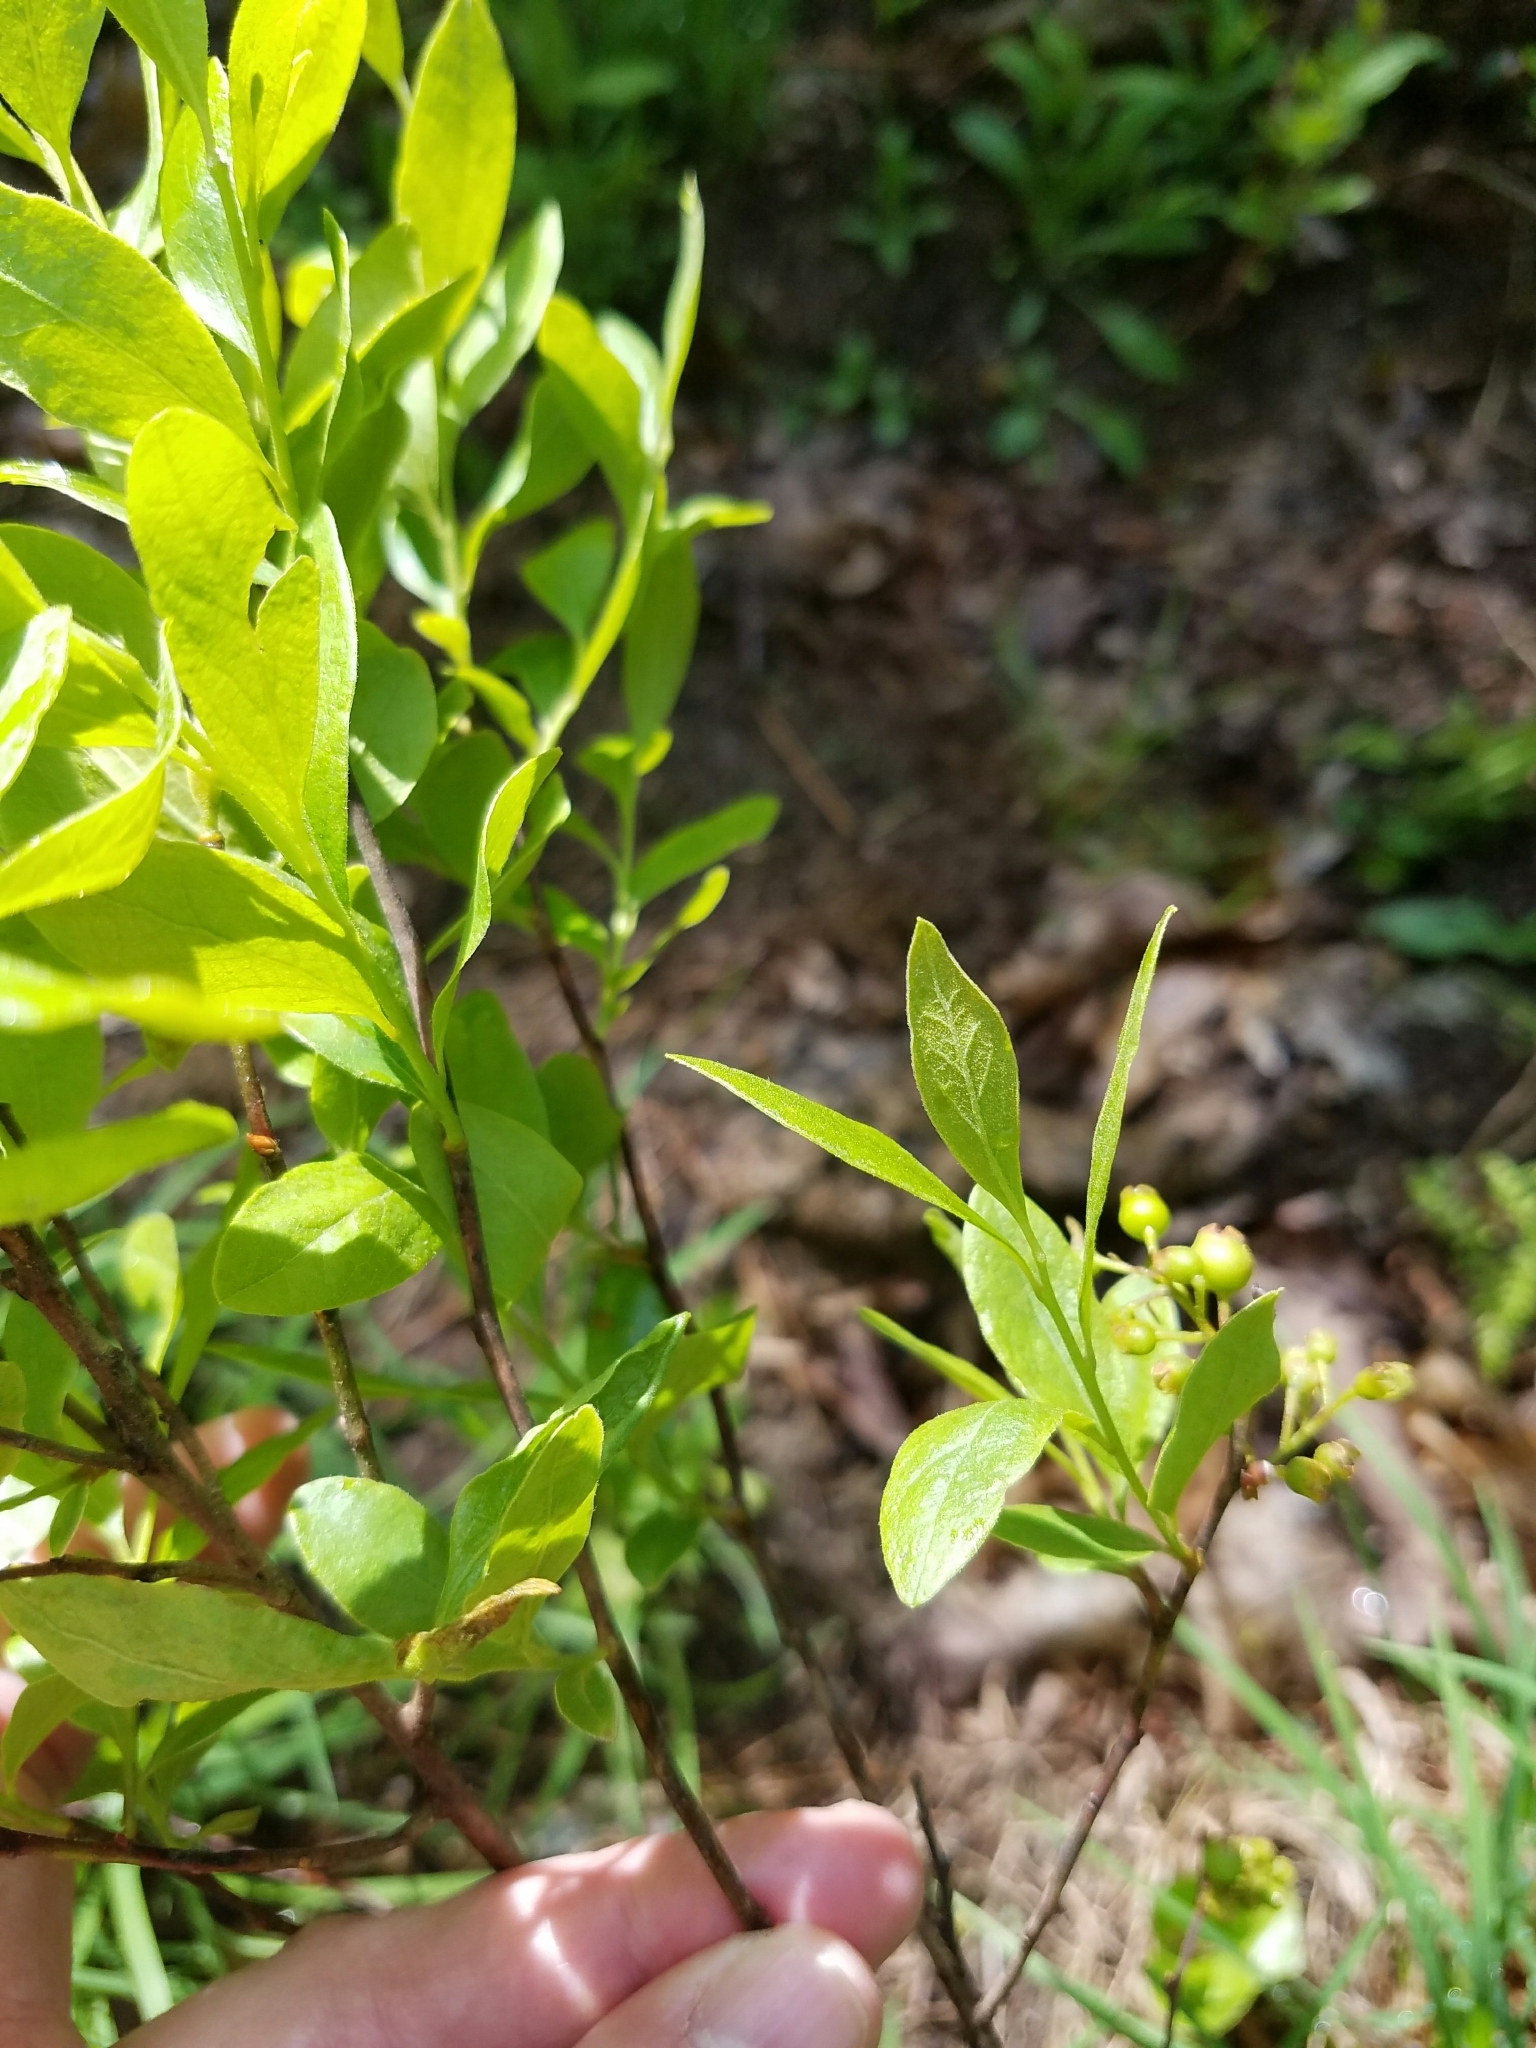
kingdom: Plantae
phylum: Tracheophyta
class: Magnoliopsida
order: Ericales
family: Ericaceae
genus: Gaylussacia
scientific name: Gaylussacia baccata
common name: Black huckleberry
